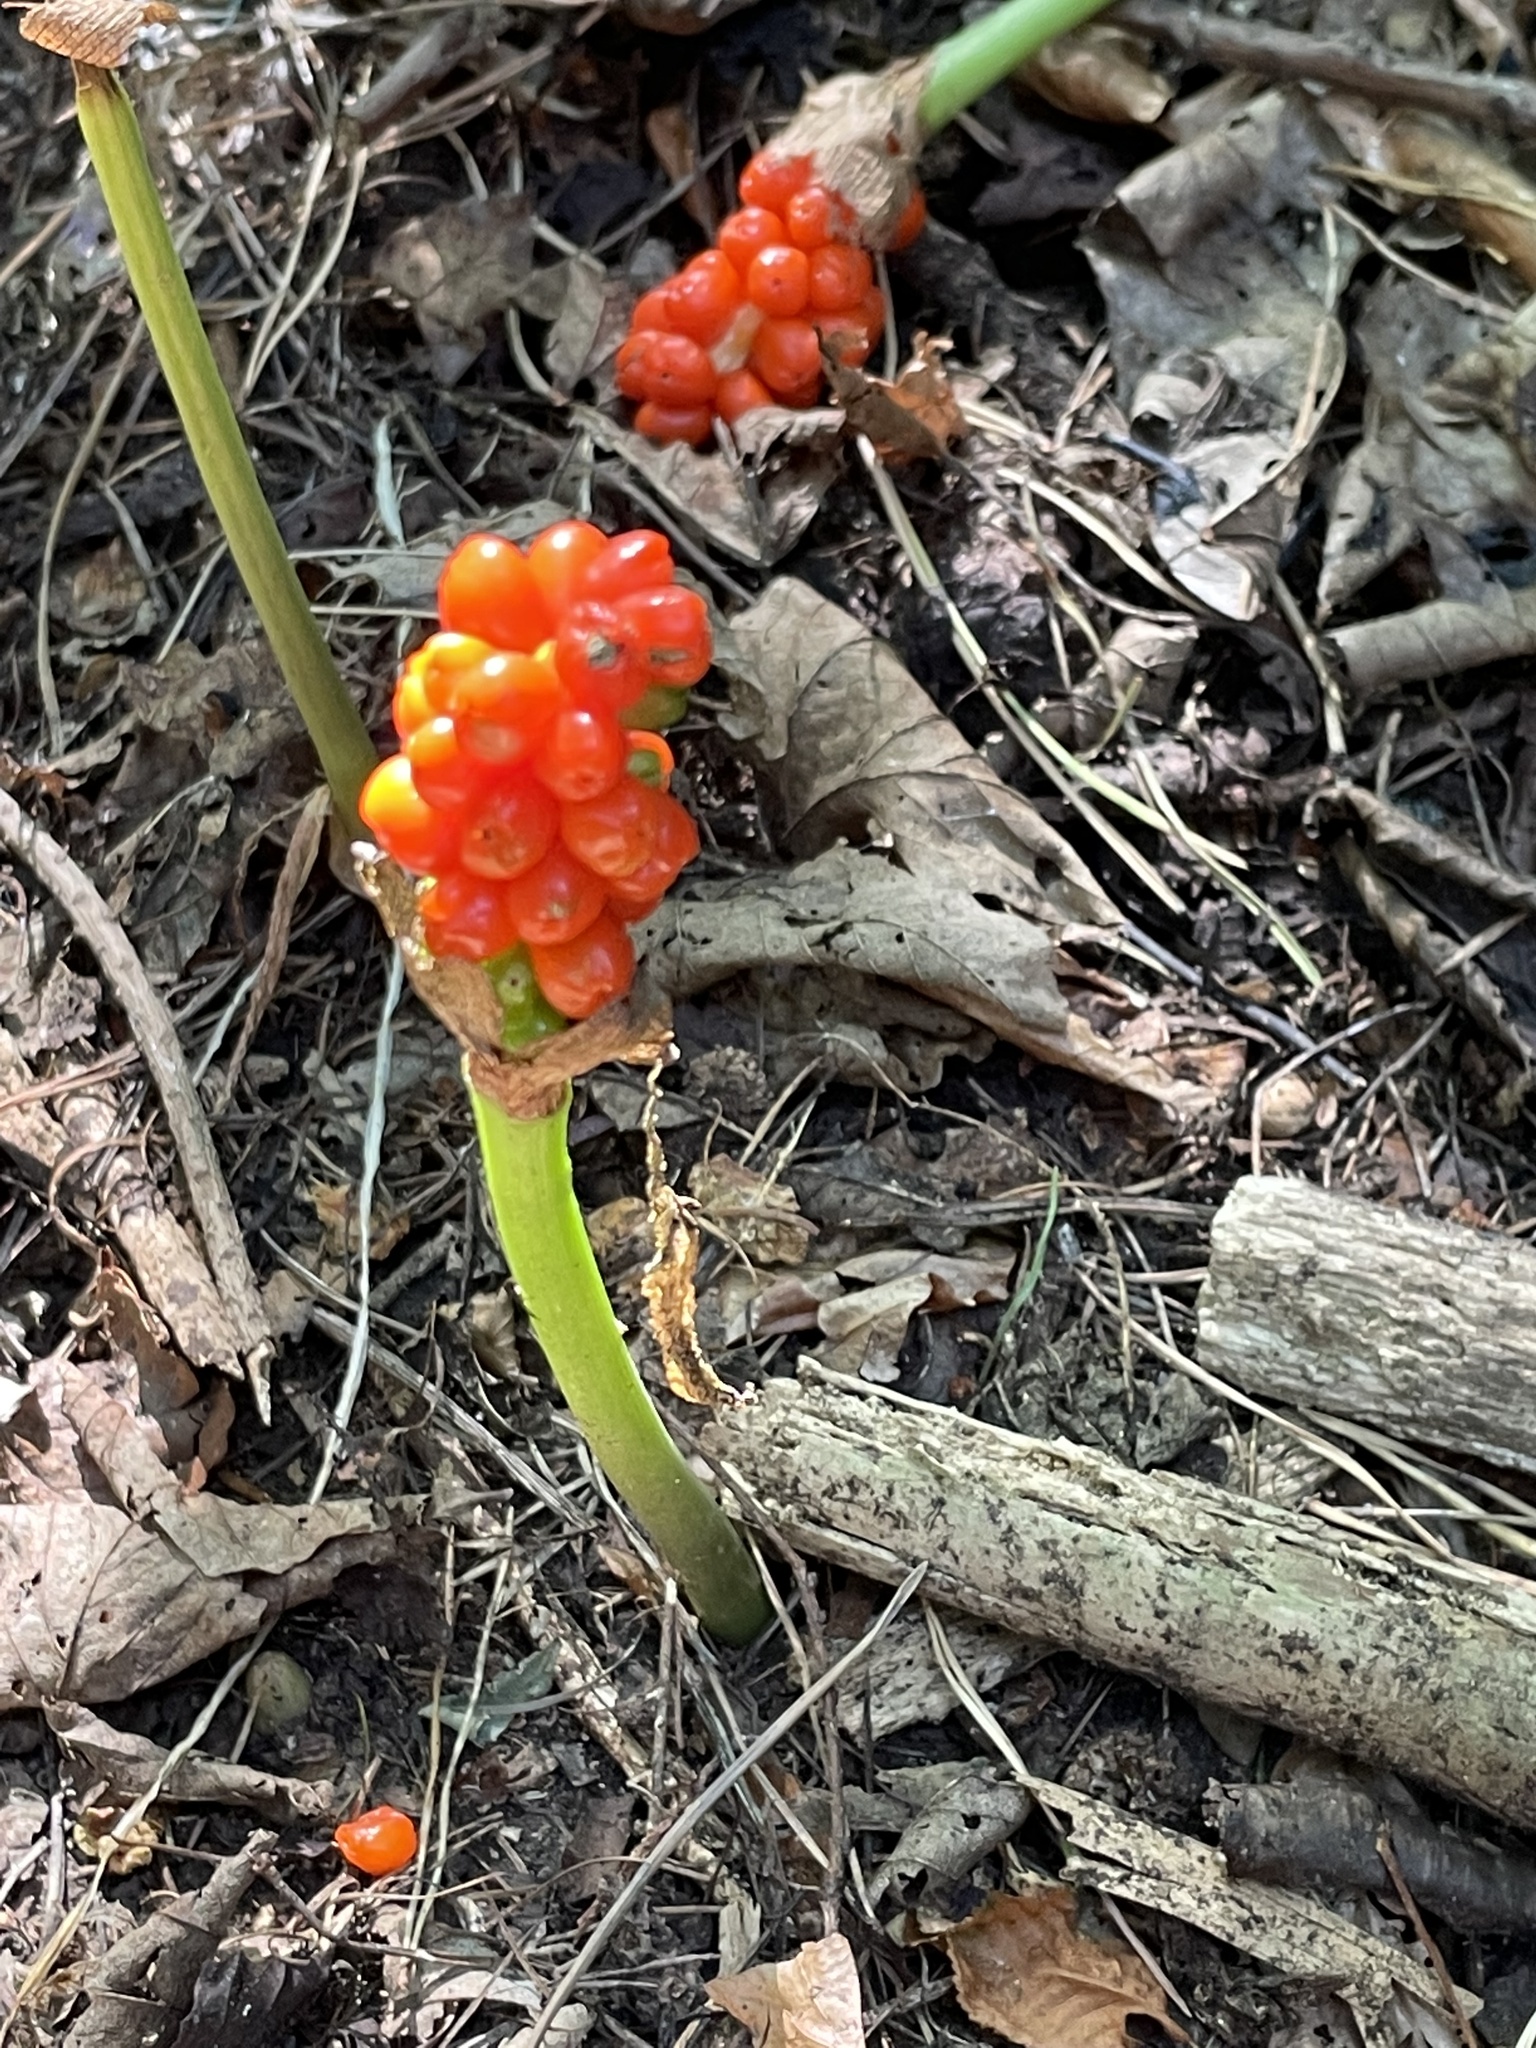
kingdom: Plantae
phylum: Tracheophyta
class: Liliopsida
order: Alismatales
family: Araceae
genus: Arum
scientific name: Arum maculatum
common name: Lords-and-ladies
